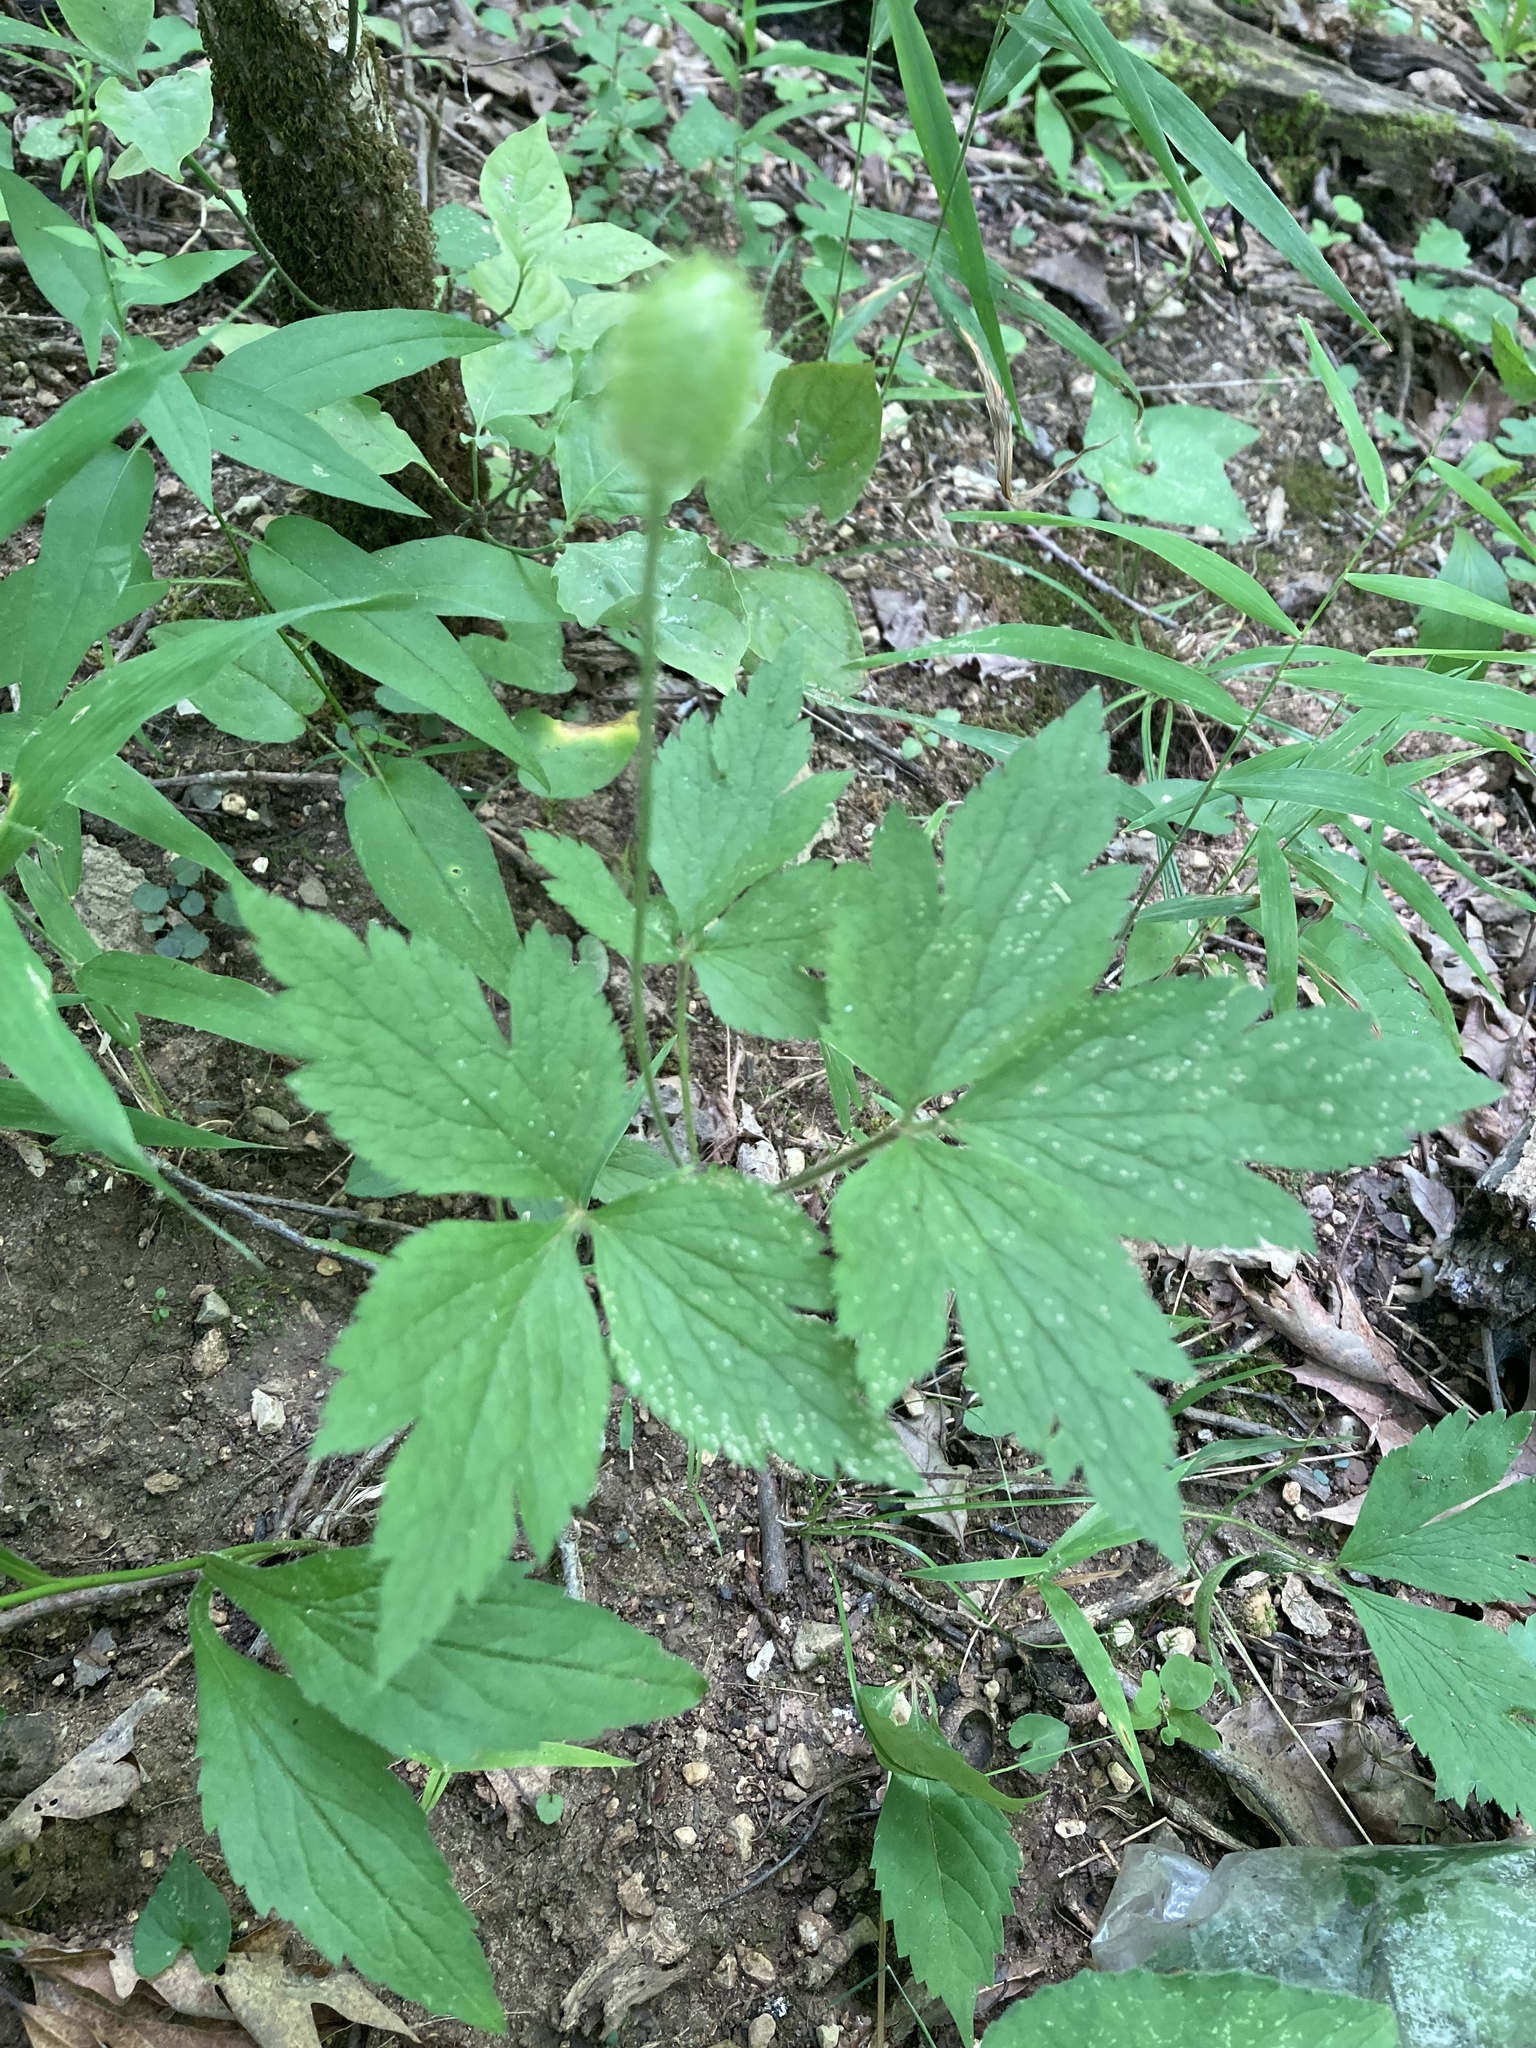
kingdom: Plantae
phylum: Tracheophyta
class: Magnoliopsida
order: Ranunculales
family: Ranunculaceae
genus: Anemone
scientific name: Anemone virginiana
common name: Tall anemone
